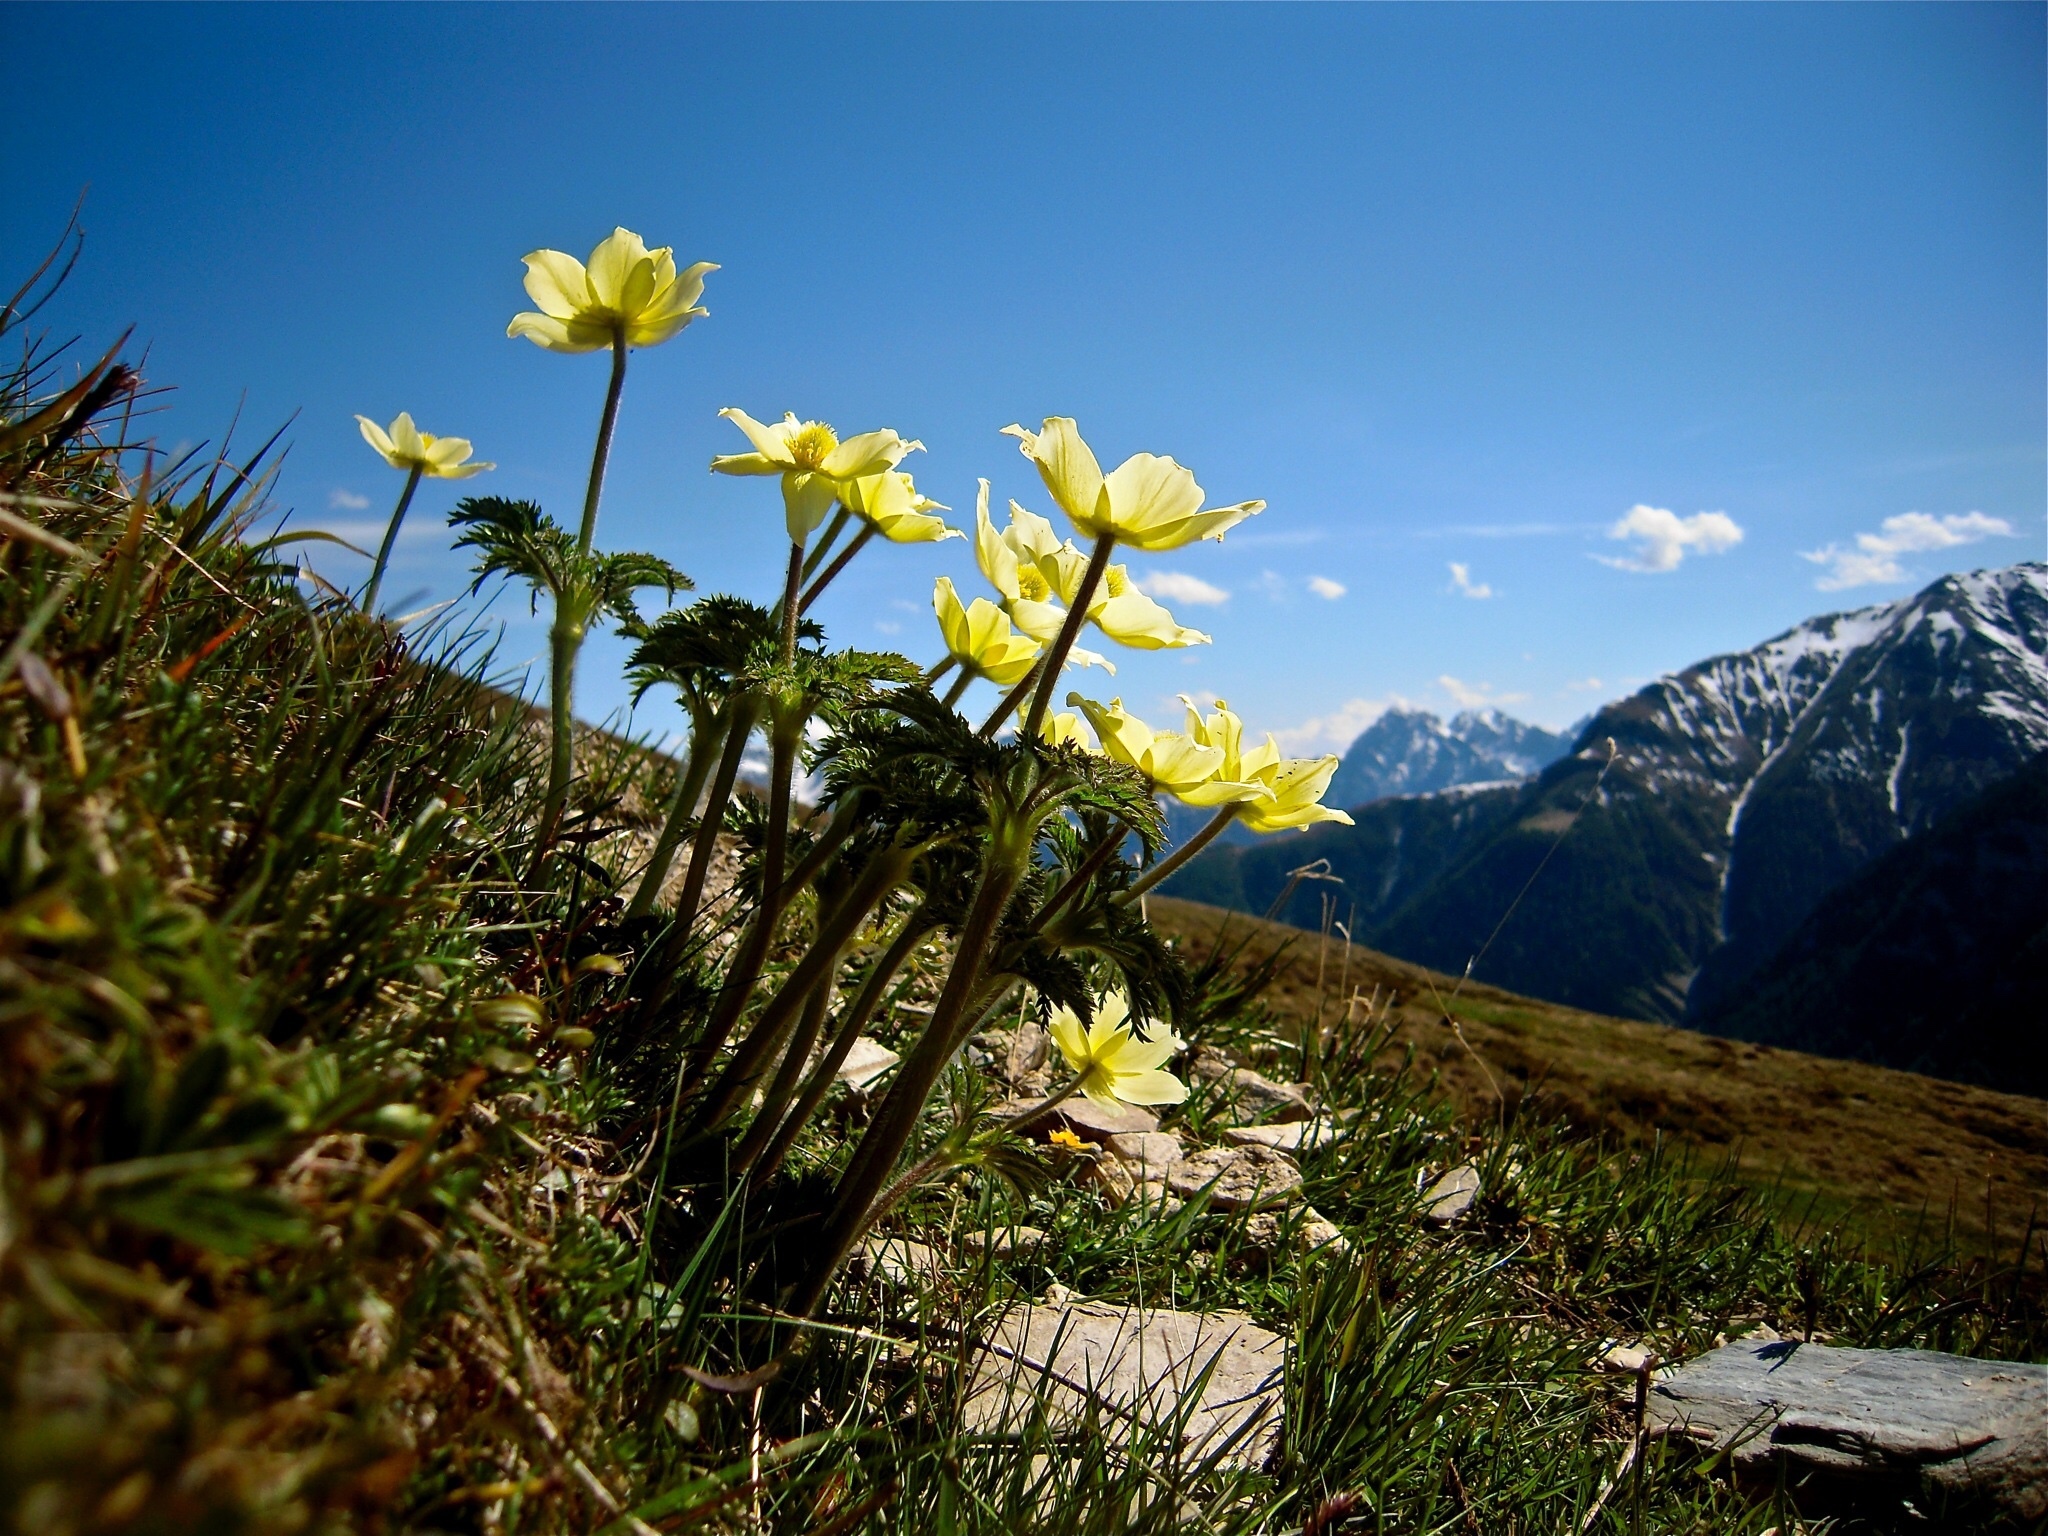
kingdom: Plantae
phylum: Tracheophyta
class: Magnoliopsida
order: Ranunculales
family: Ranunculaceae
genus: Pulsatilla
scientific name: Pulsatilla alpina
